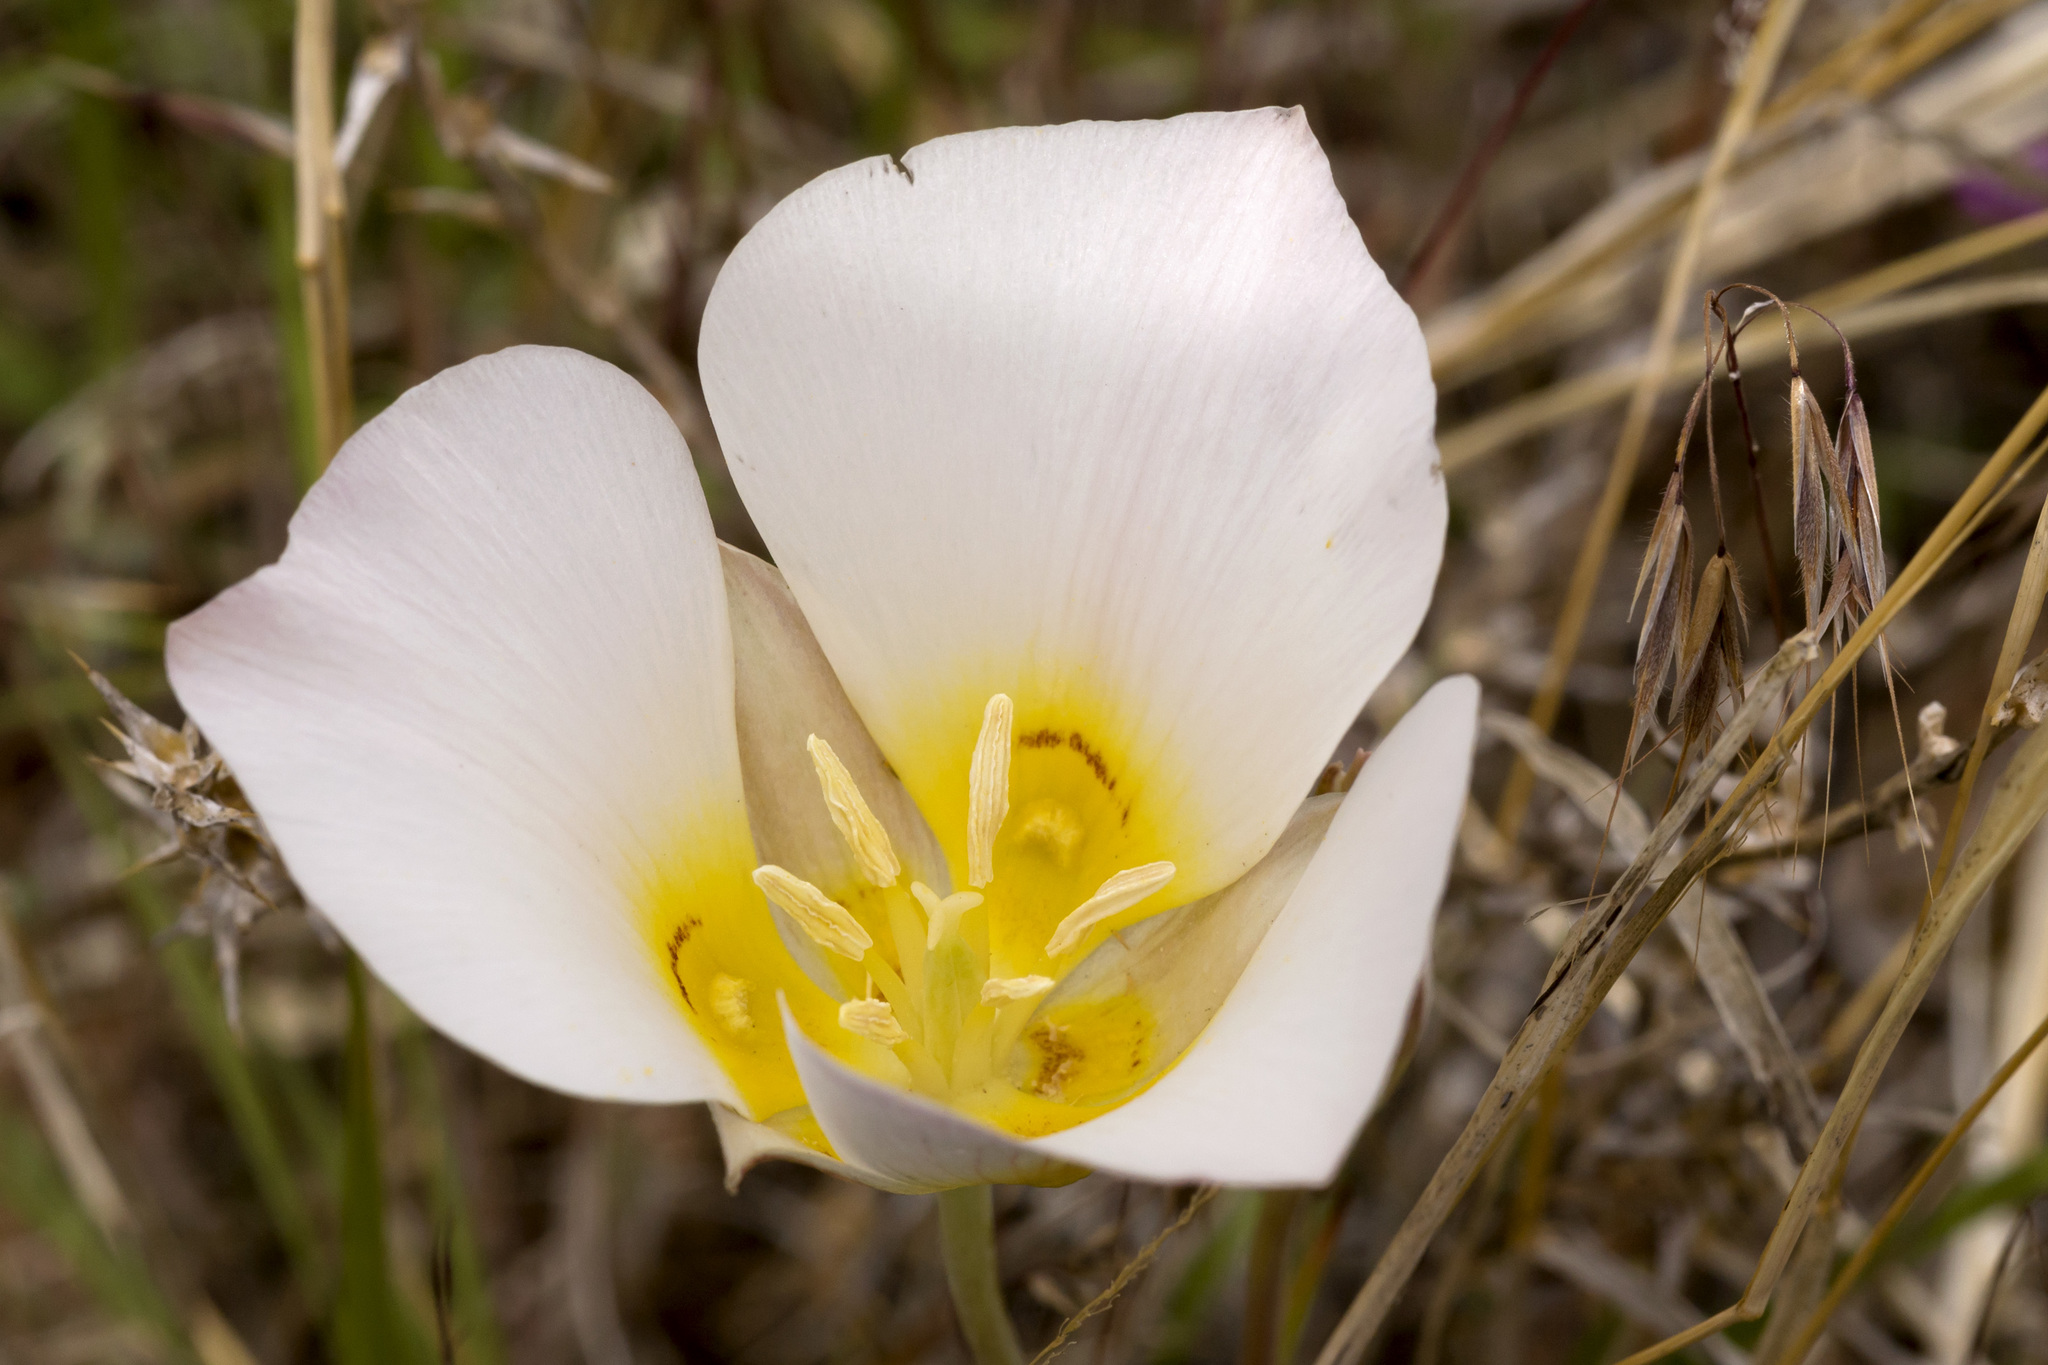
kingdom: Plantae
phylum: Tracheophyta
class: Liliopsida
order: Liliales
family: Liliaceae
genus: Calochortus
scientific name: Calochortus nuttallii
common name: Sego-lily
